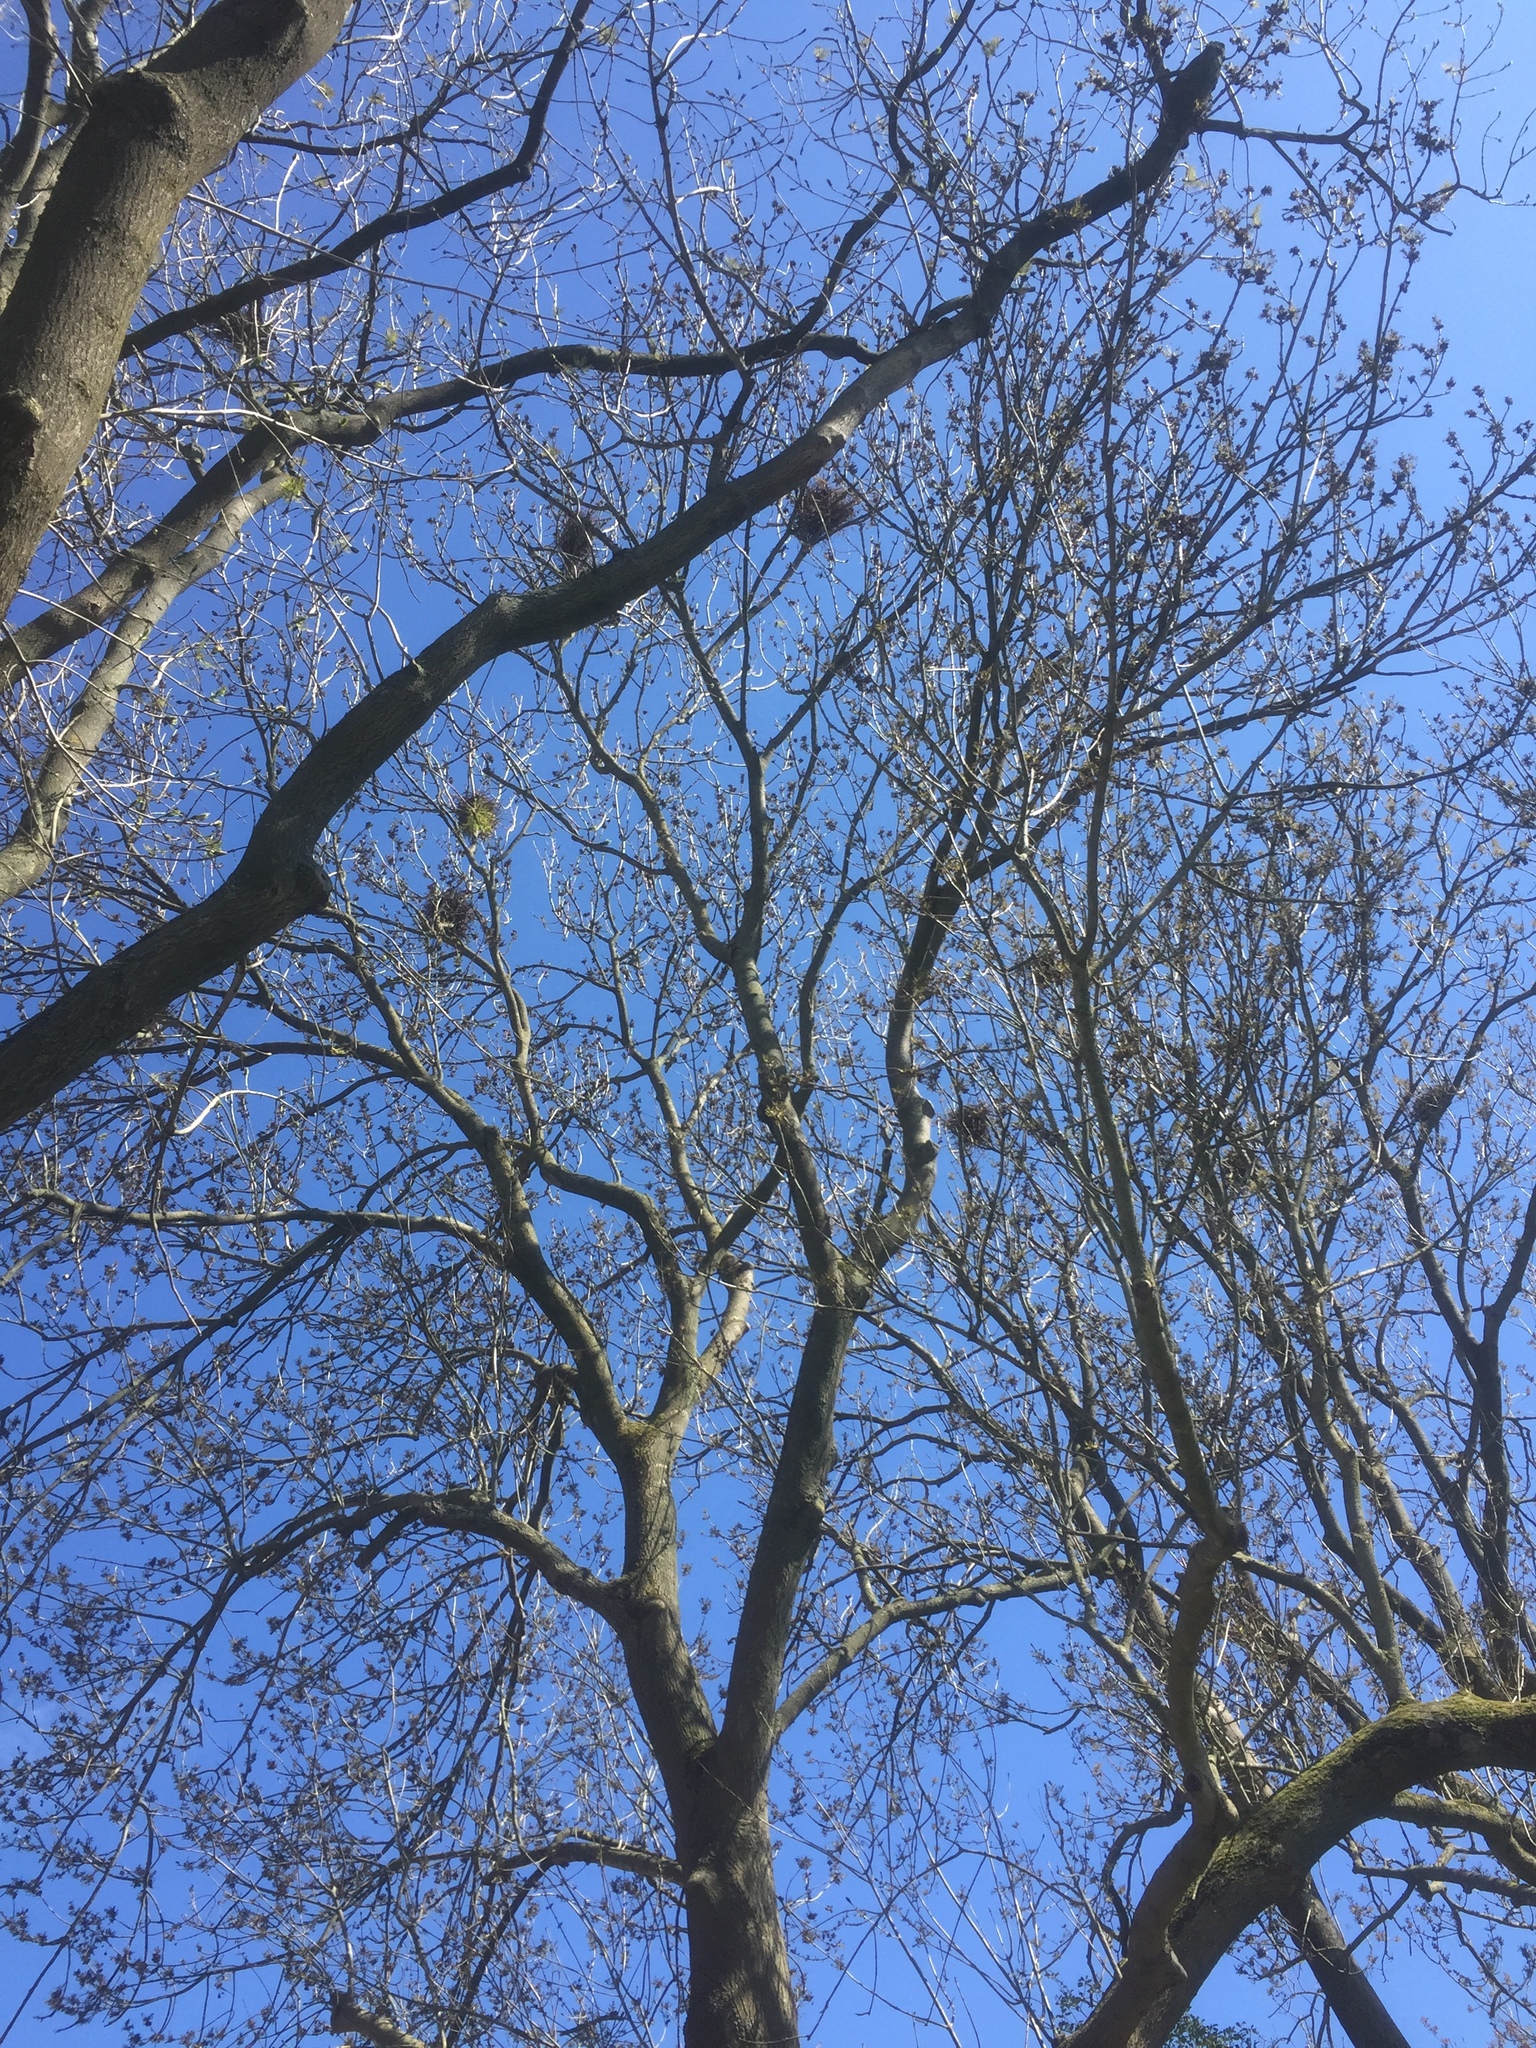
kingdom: Animalia
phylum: Chordata
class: Aves
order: Passeriformes
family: Corvidae
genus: Corvus
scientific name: Corvus frugilegus
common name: Rook
